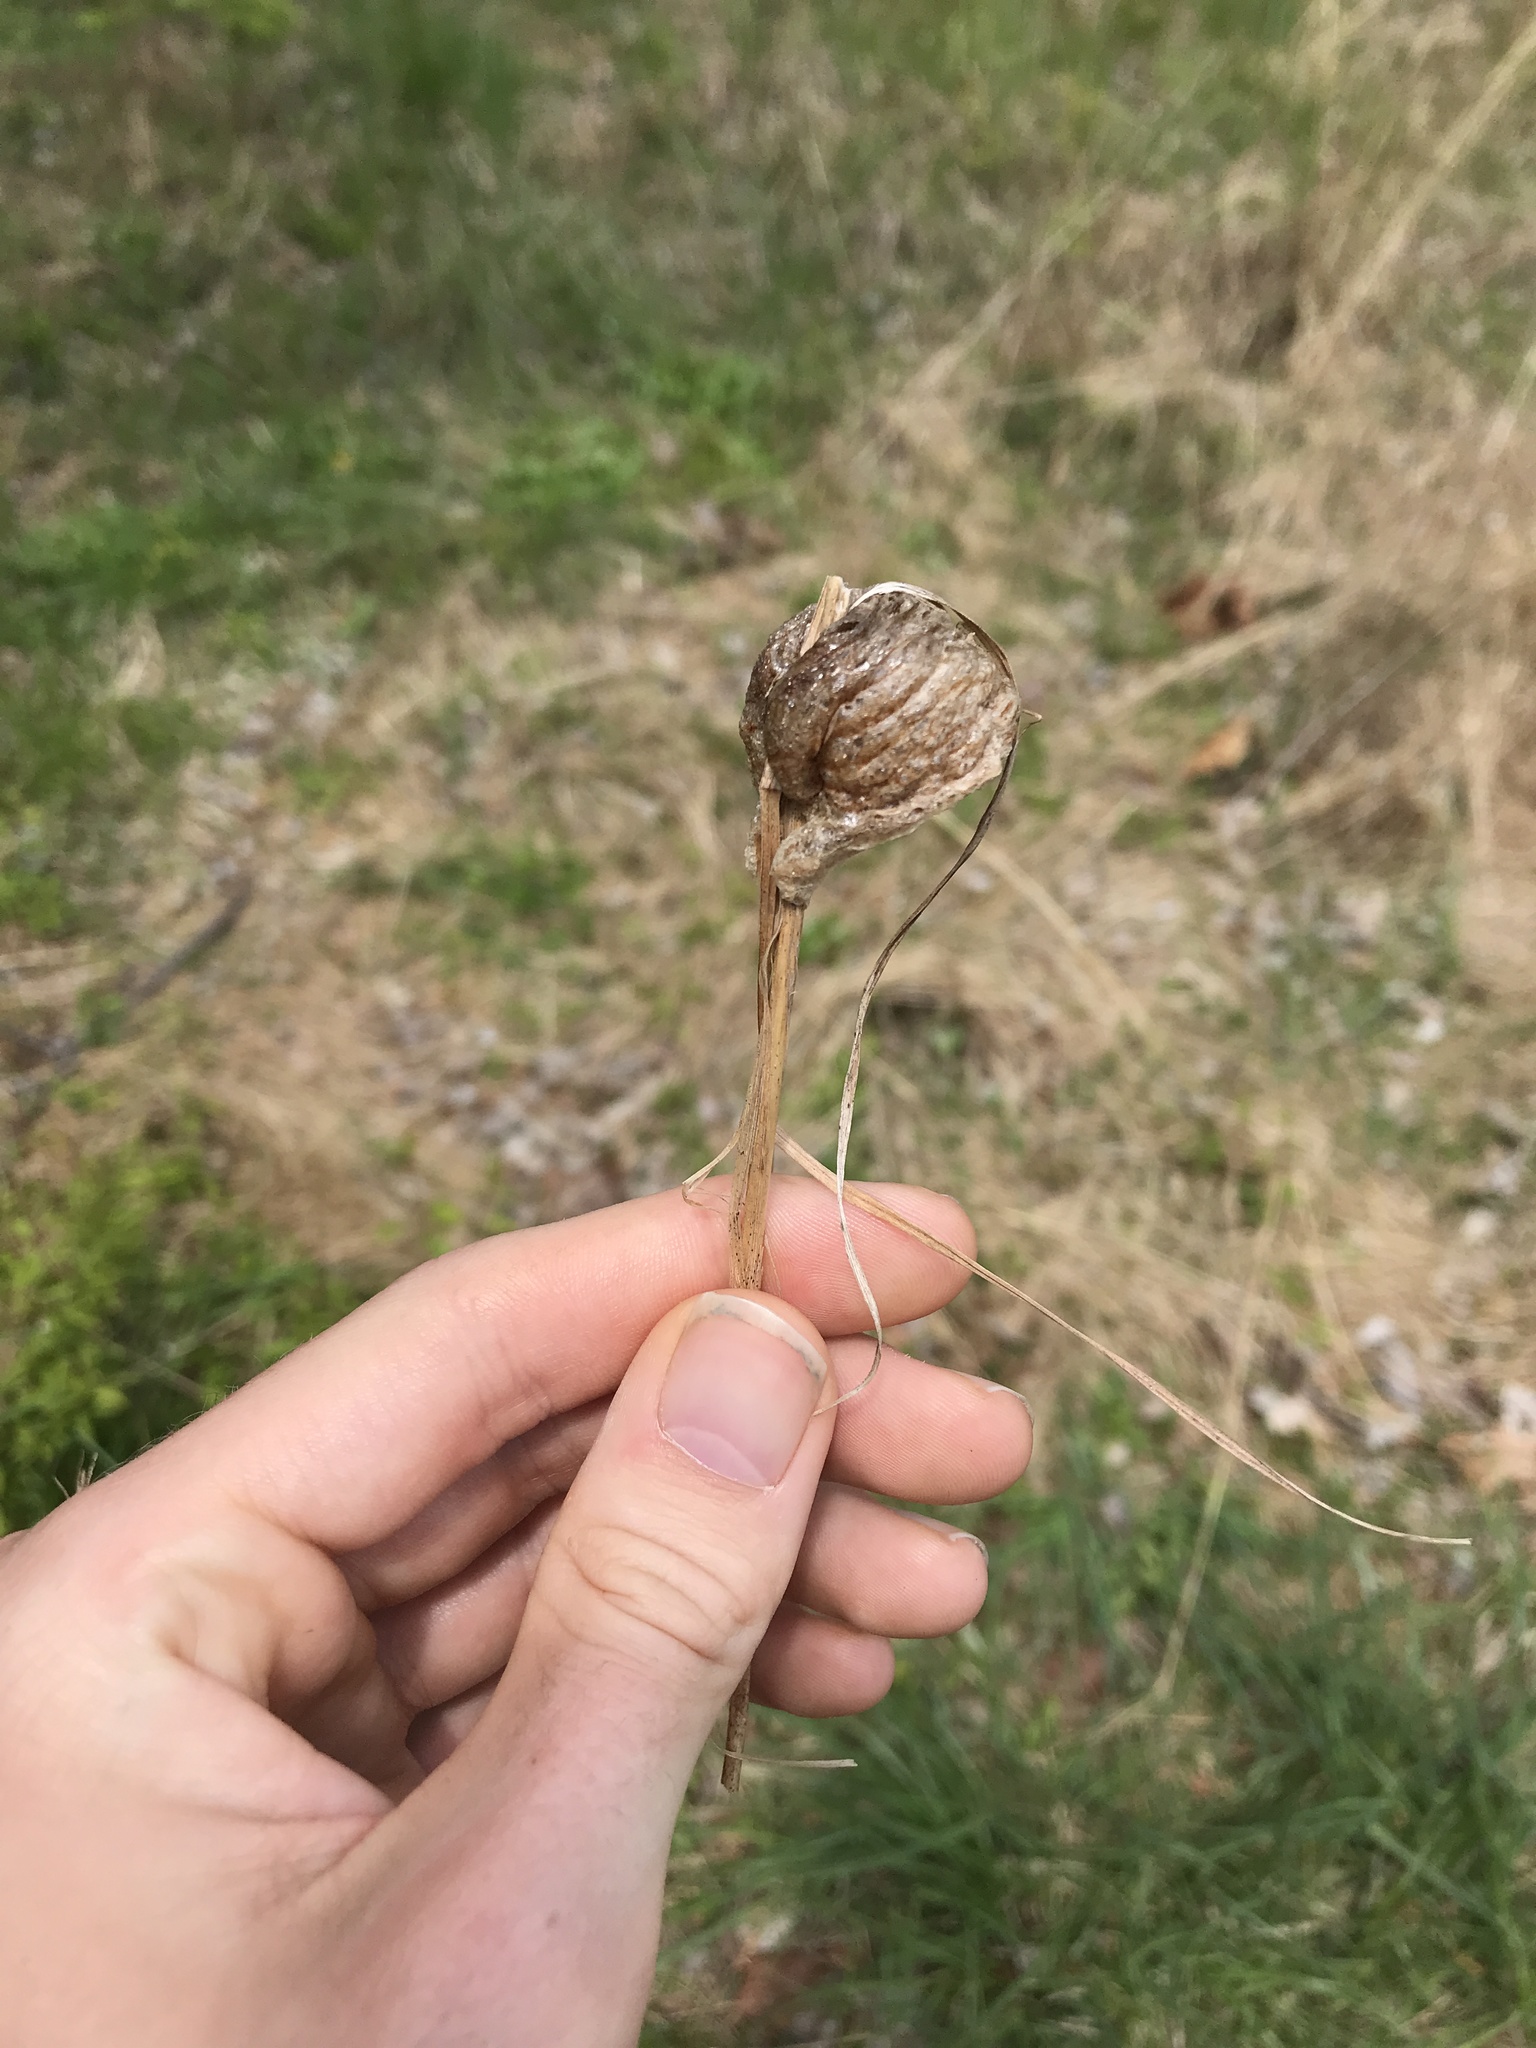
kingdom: Animalia
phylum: Arthropoda
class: Insecta
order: Mantodea
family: Mantidae
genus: Tenodera
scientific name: Tenodera sinensis
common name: Chinese mantis
